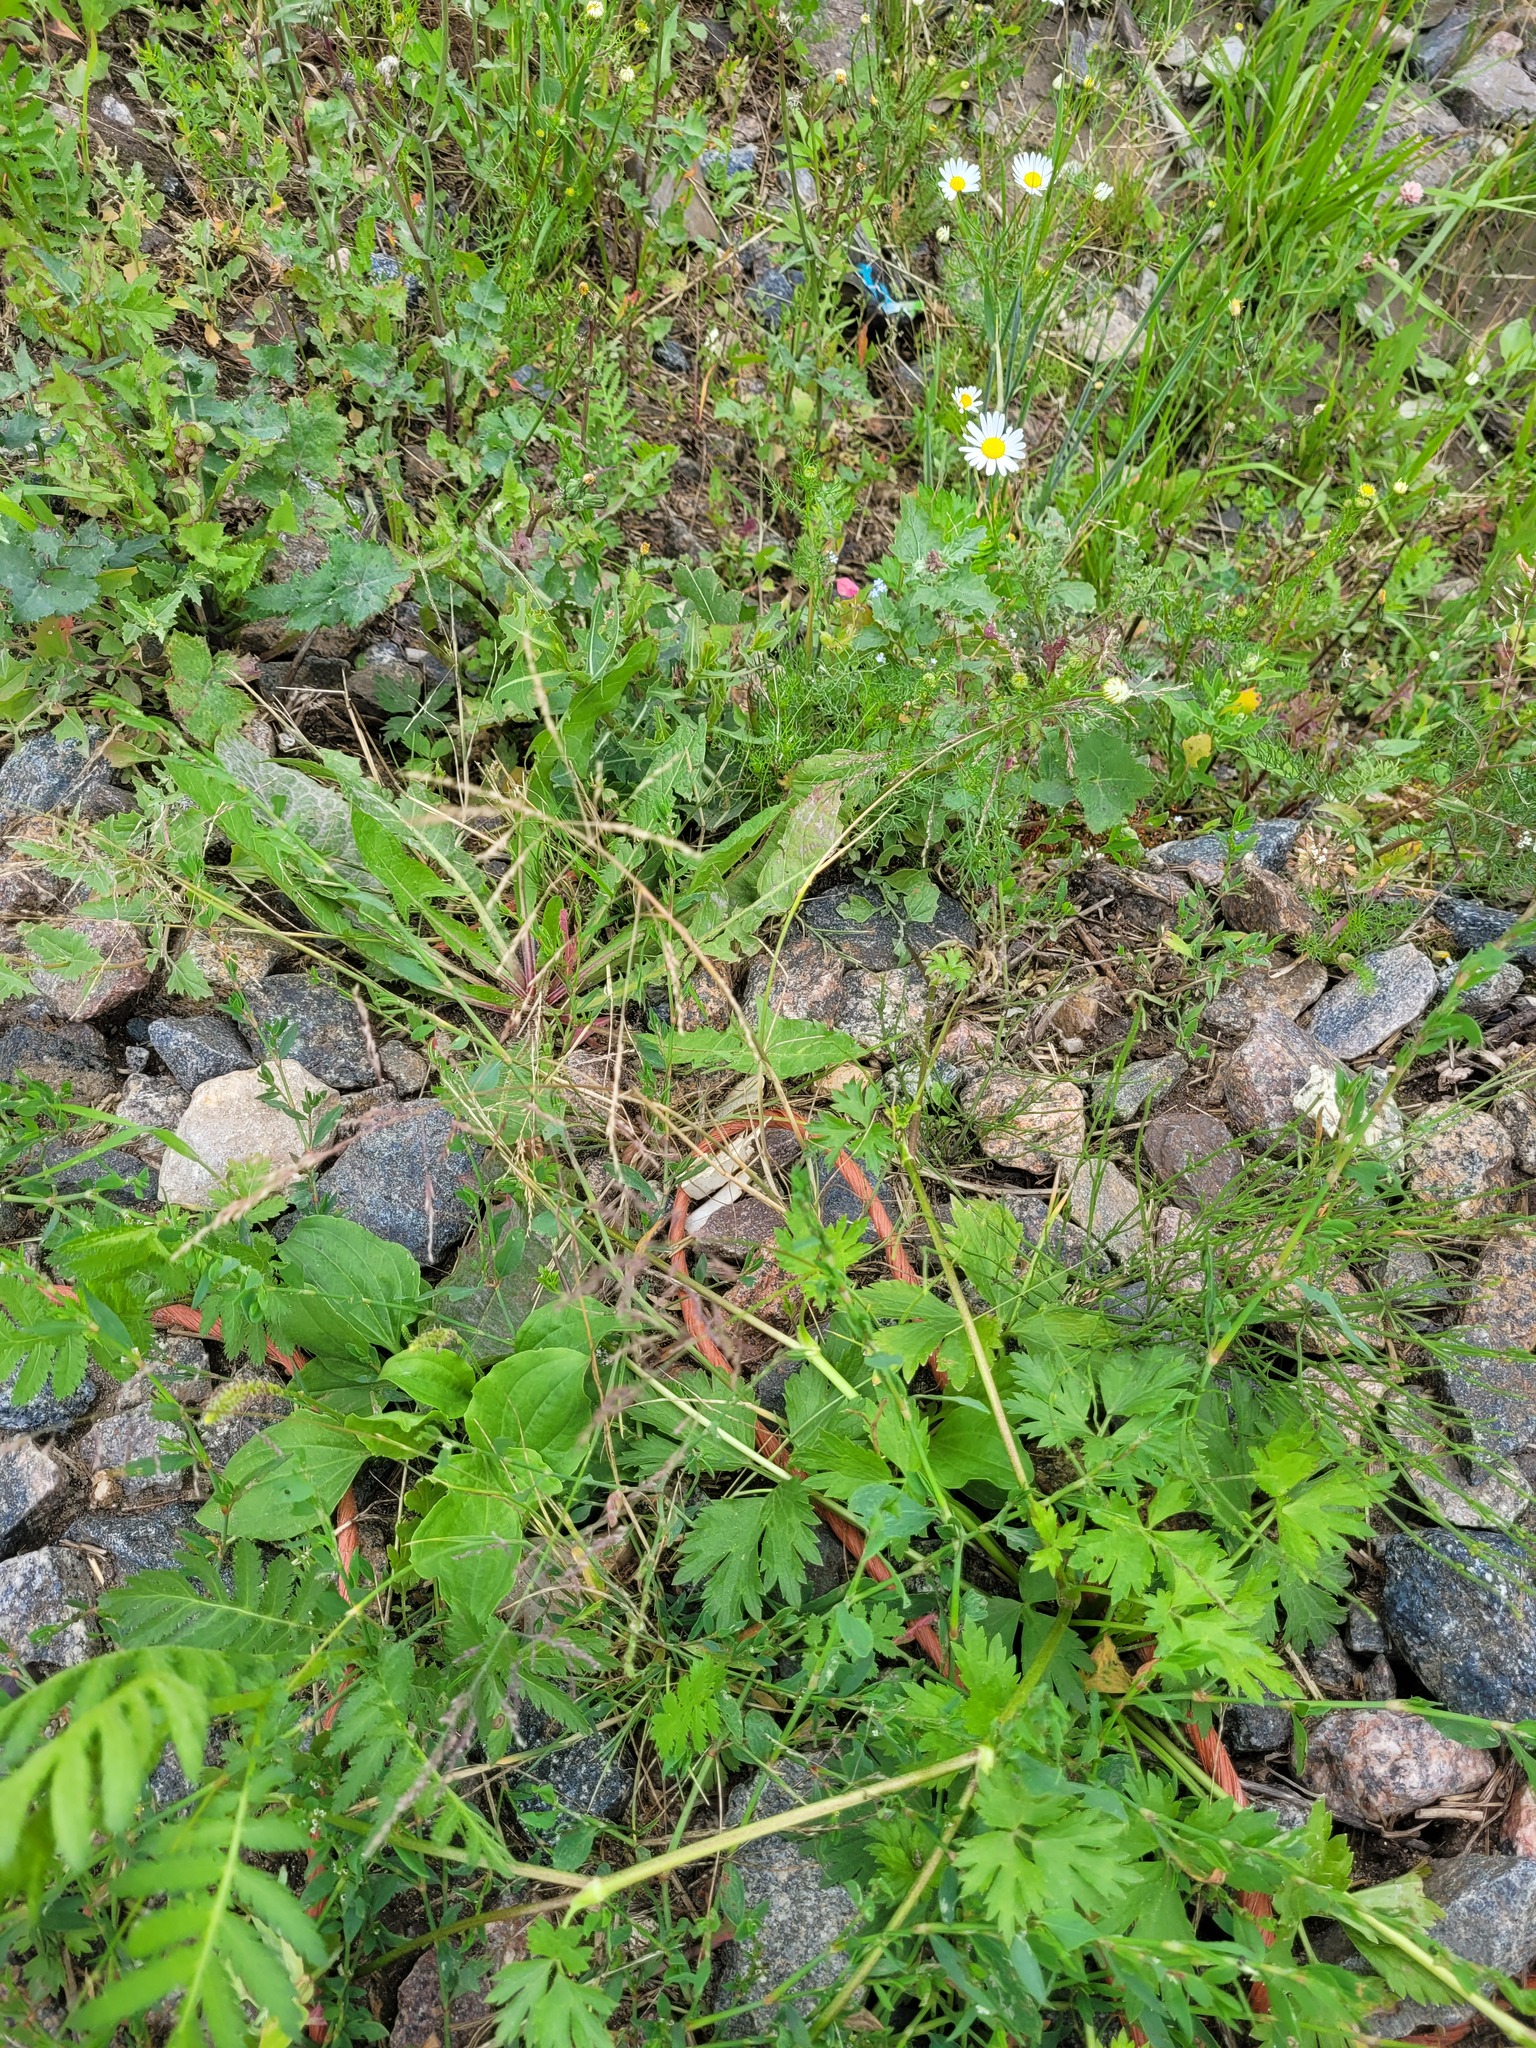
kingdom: Plantae
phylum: Tracheophyta
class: Liliopsida
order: Poales
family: Poaceae
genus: Puccinellia
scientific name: Puccinellia distans
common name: Weeping alkaligrass
